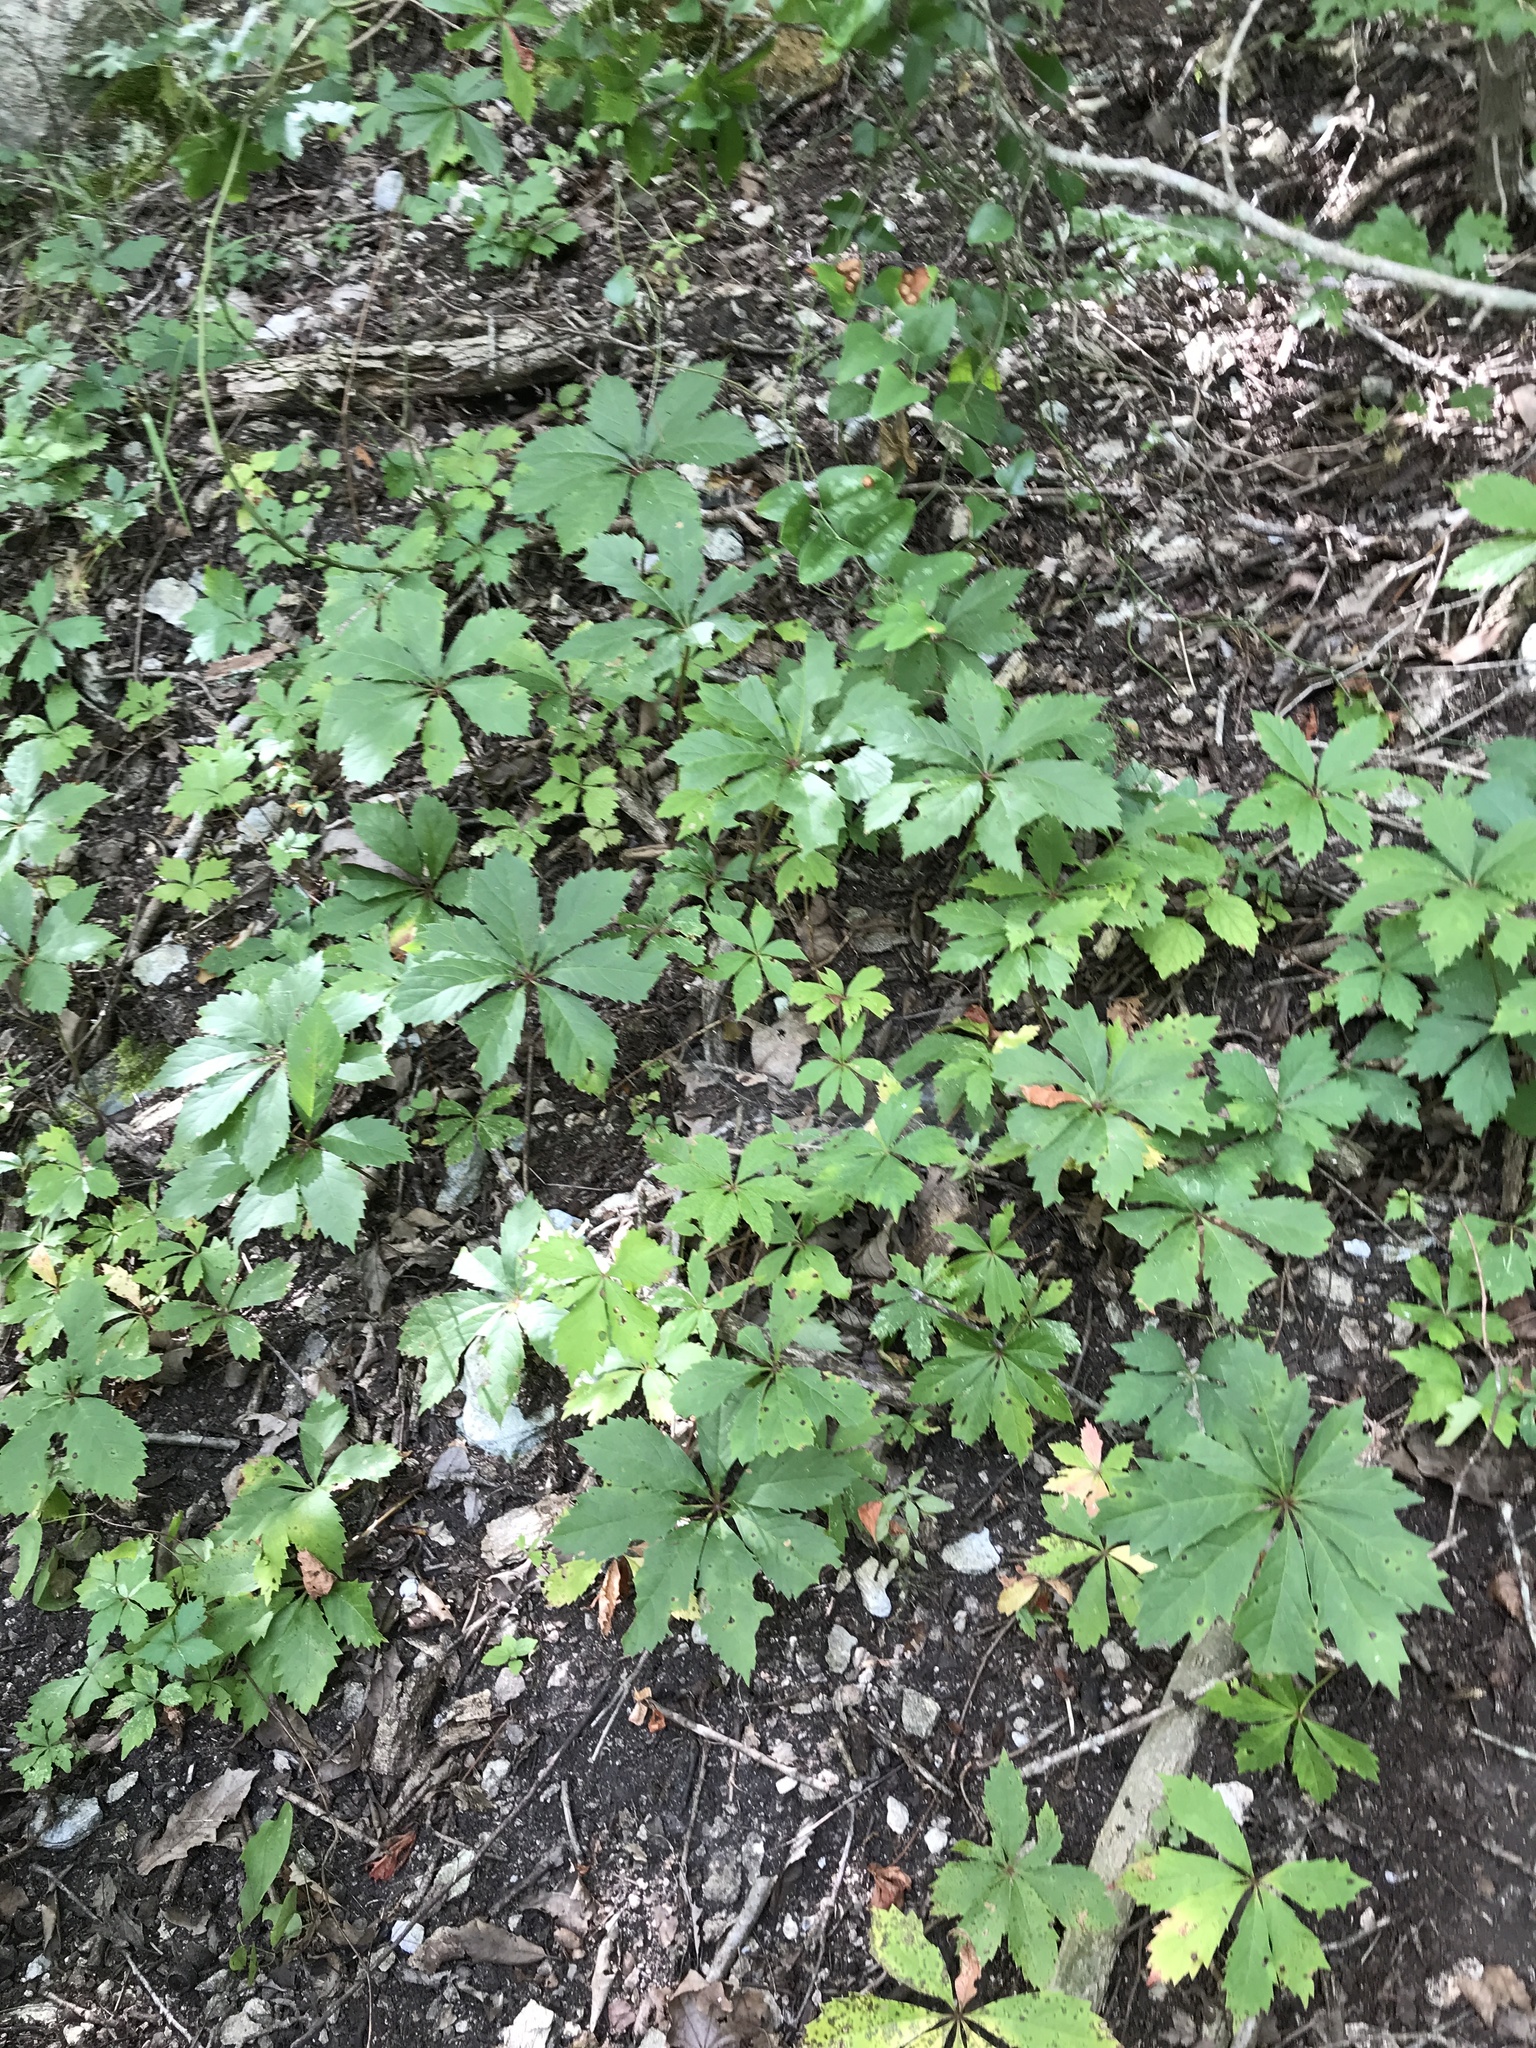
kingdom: Plantae
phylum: Tracheophyta
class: Magnoliopsida
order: Vitales
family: Vitaceae
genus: Parthenocissus
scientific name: Parthenocissus heptaphylla
